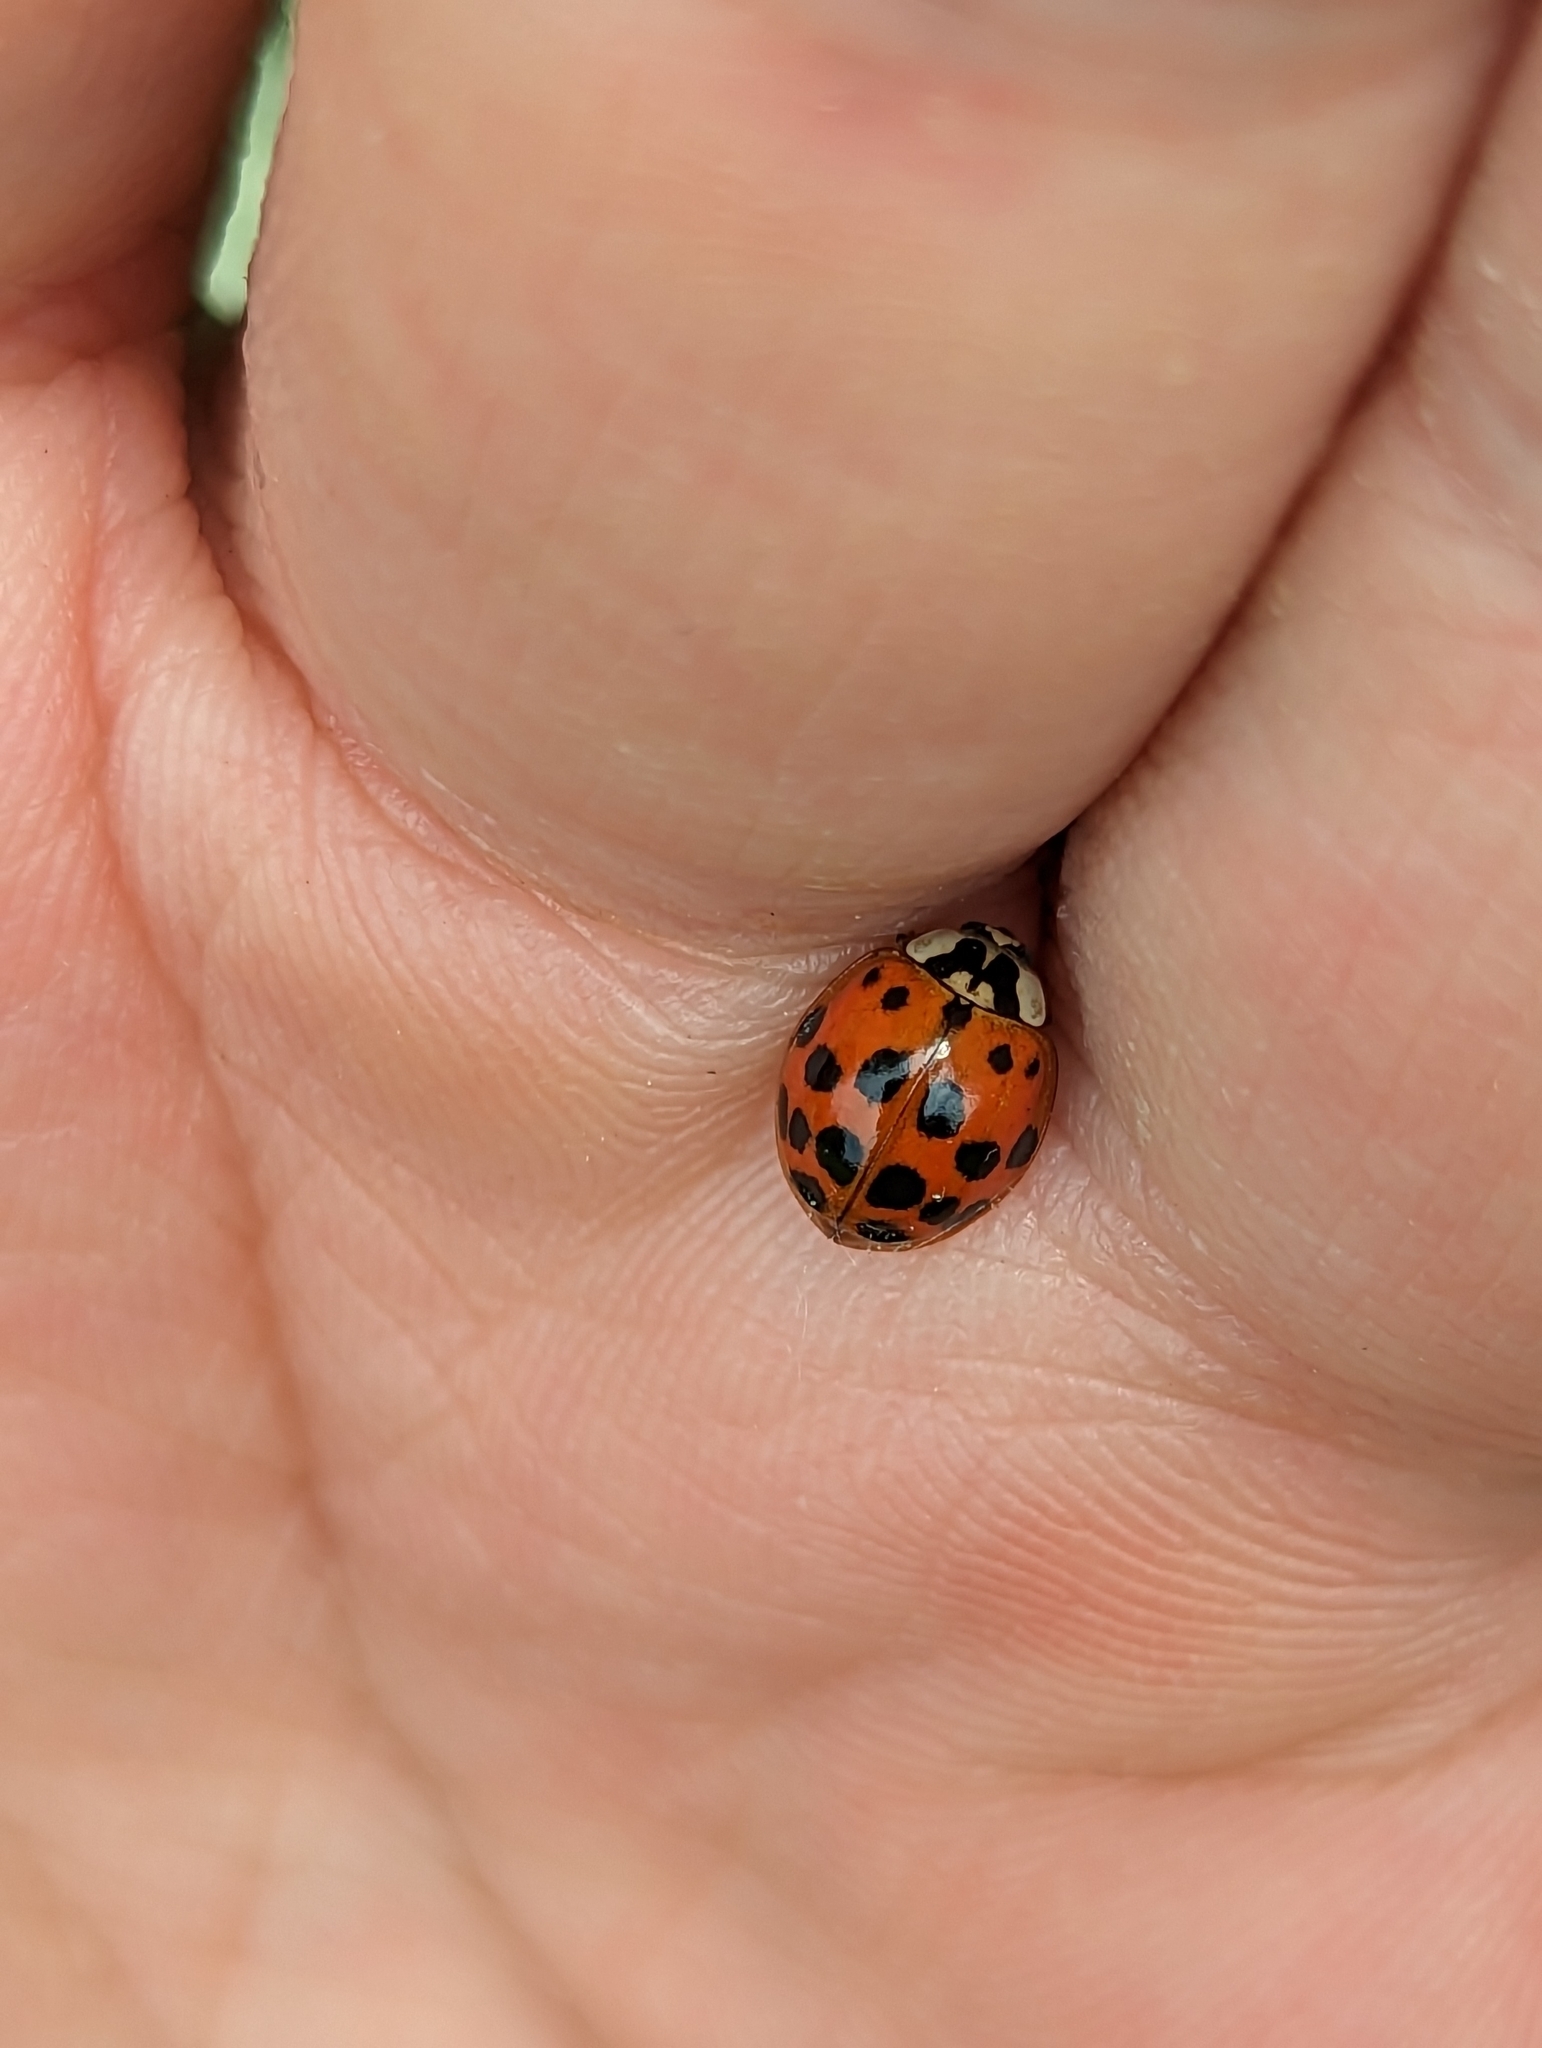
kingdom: Animalia
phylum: Arthropoda
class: Insecta
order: Coleoptera
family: Coccinellidae
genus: Harmonia
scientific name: Harmonia axyridis
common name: Harlequin ladybird
